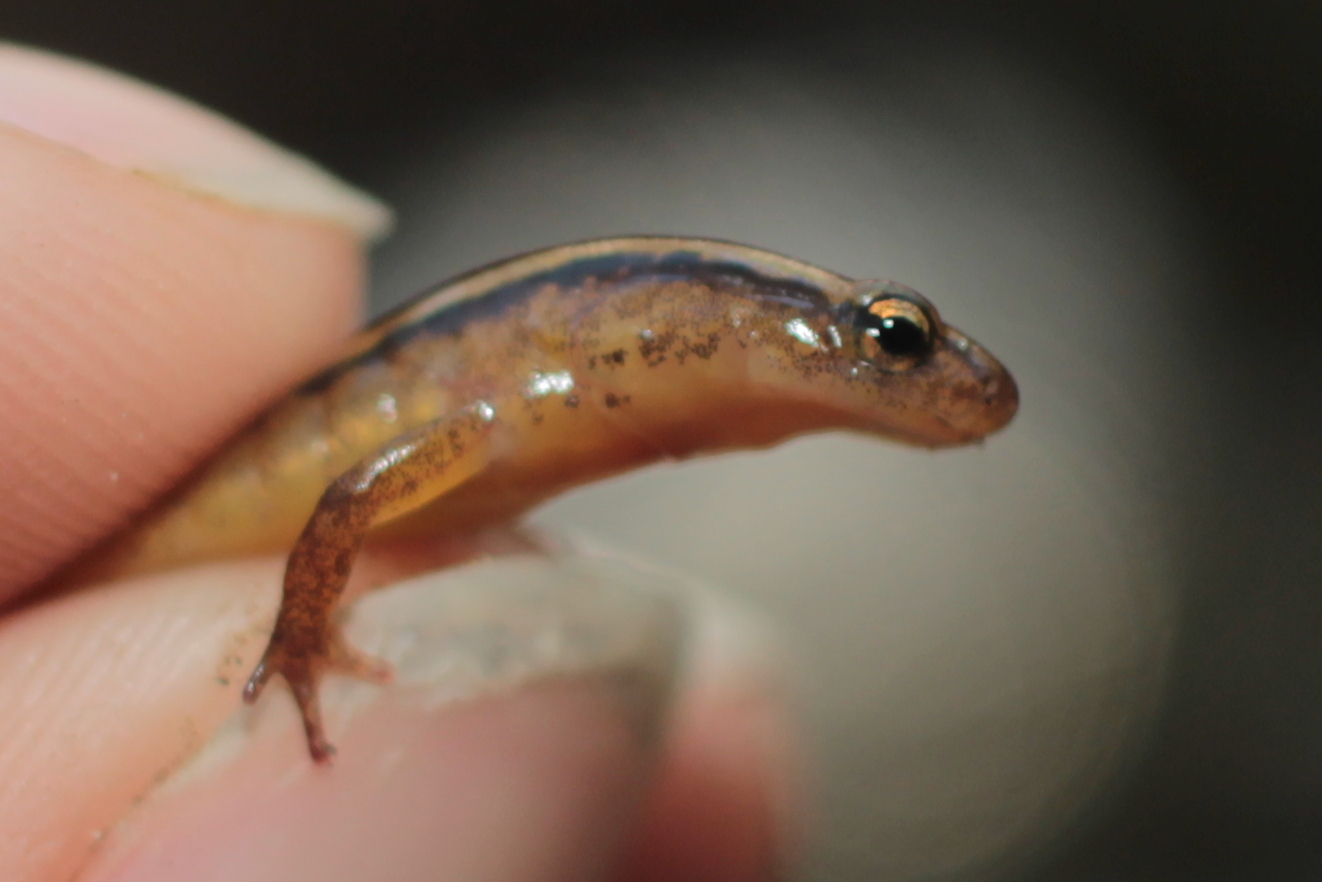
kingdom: Animalia
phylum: Chordata
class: Amphibia
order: Caudata
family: Plethodontidae
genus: Eurycea
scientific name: Eurycea wilderae
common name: Blue ridge two-lined salamander
